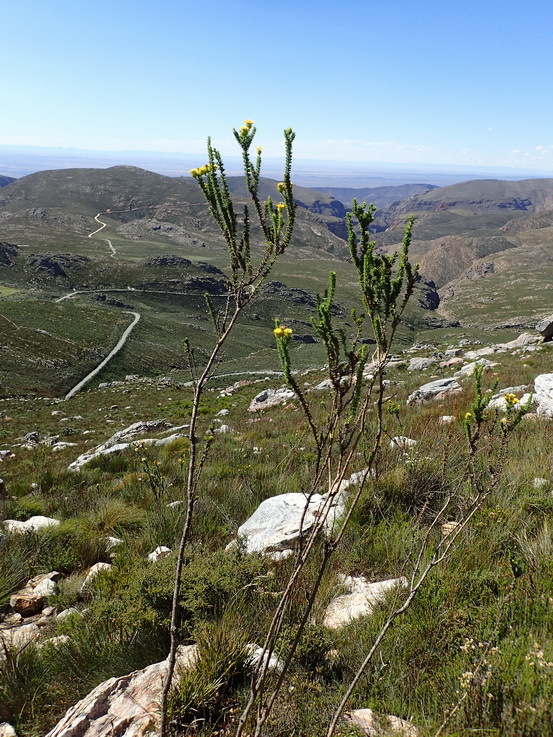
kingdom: Plantae
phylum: Tracheophyta
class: Magnoliopsida
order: Asterales
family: Asteraceae
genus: Pteronia
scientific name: Pteronia camphorata
